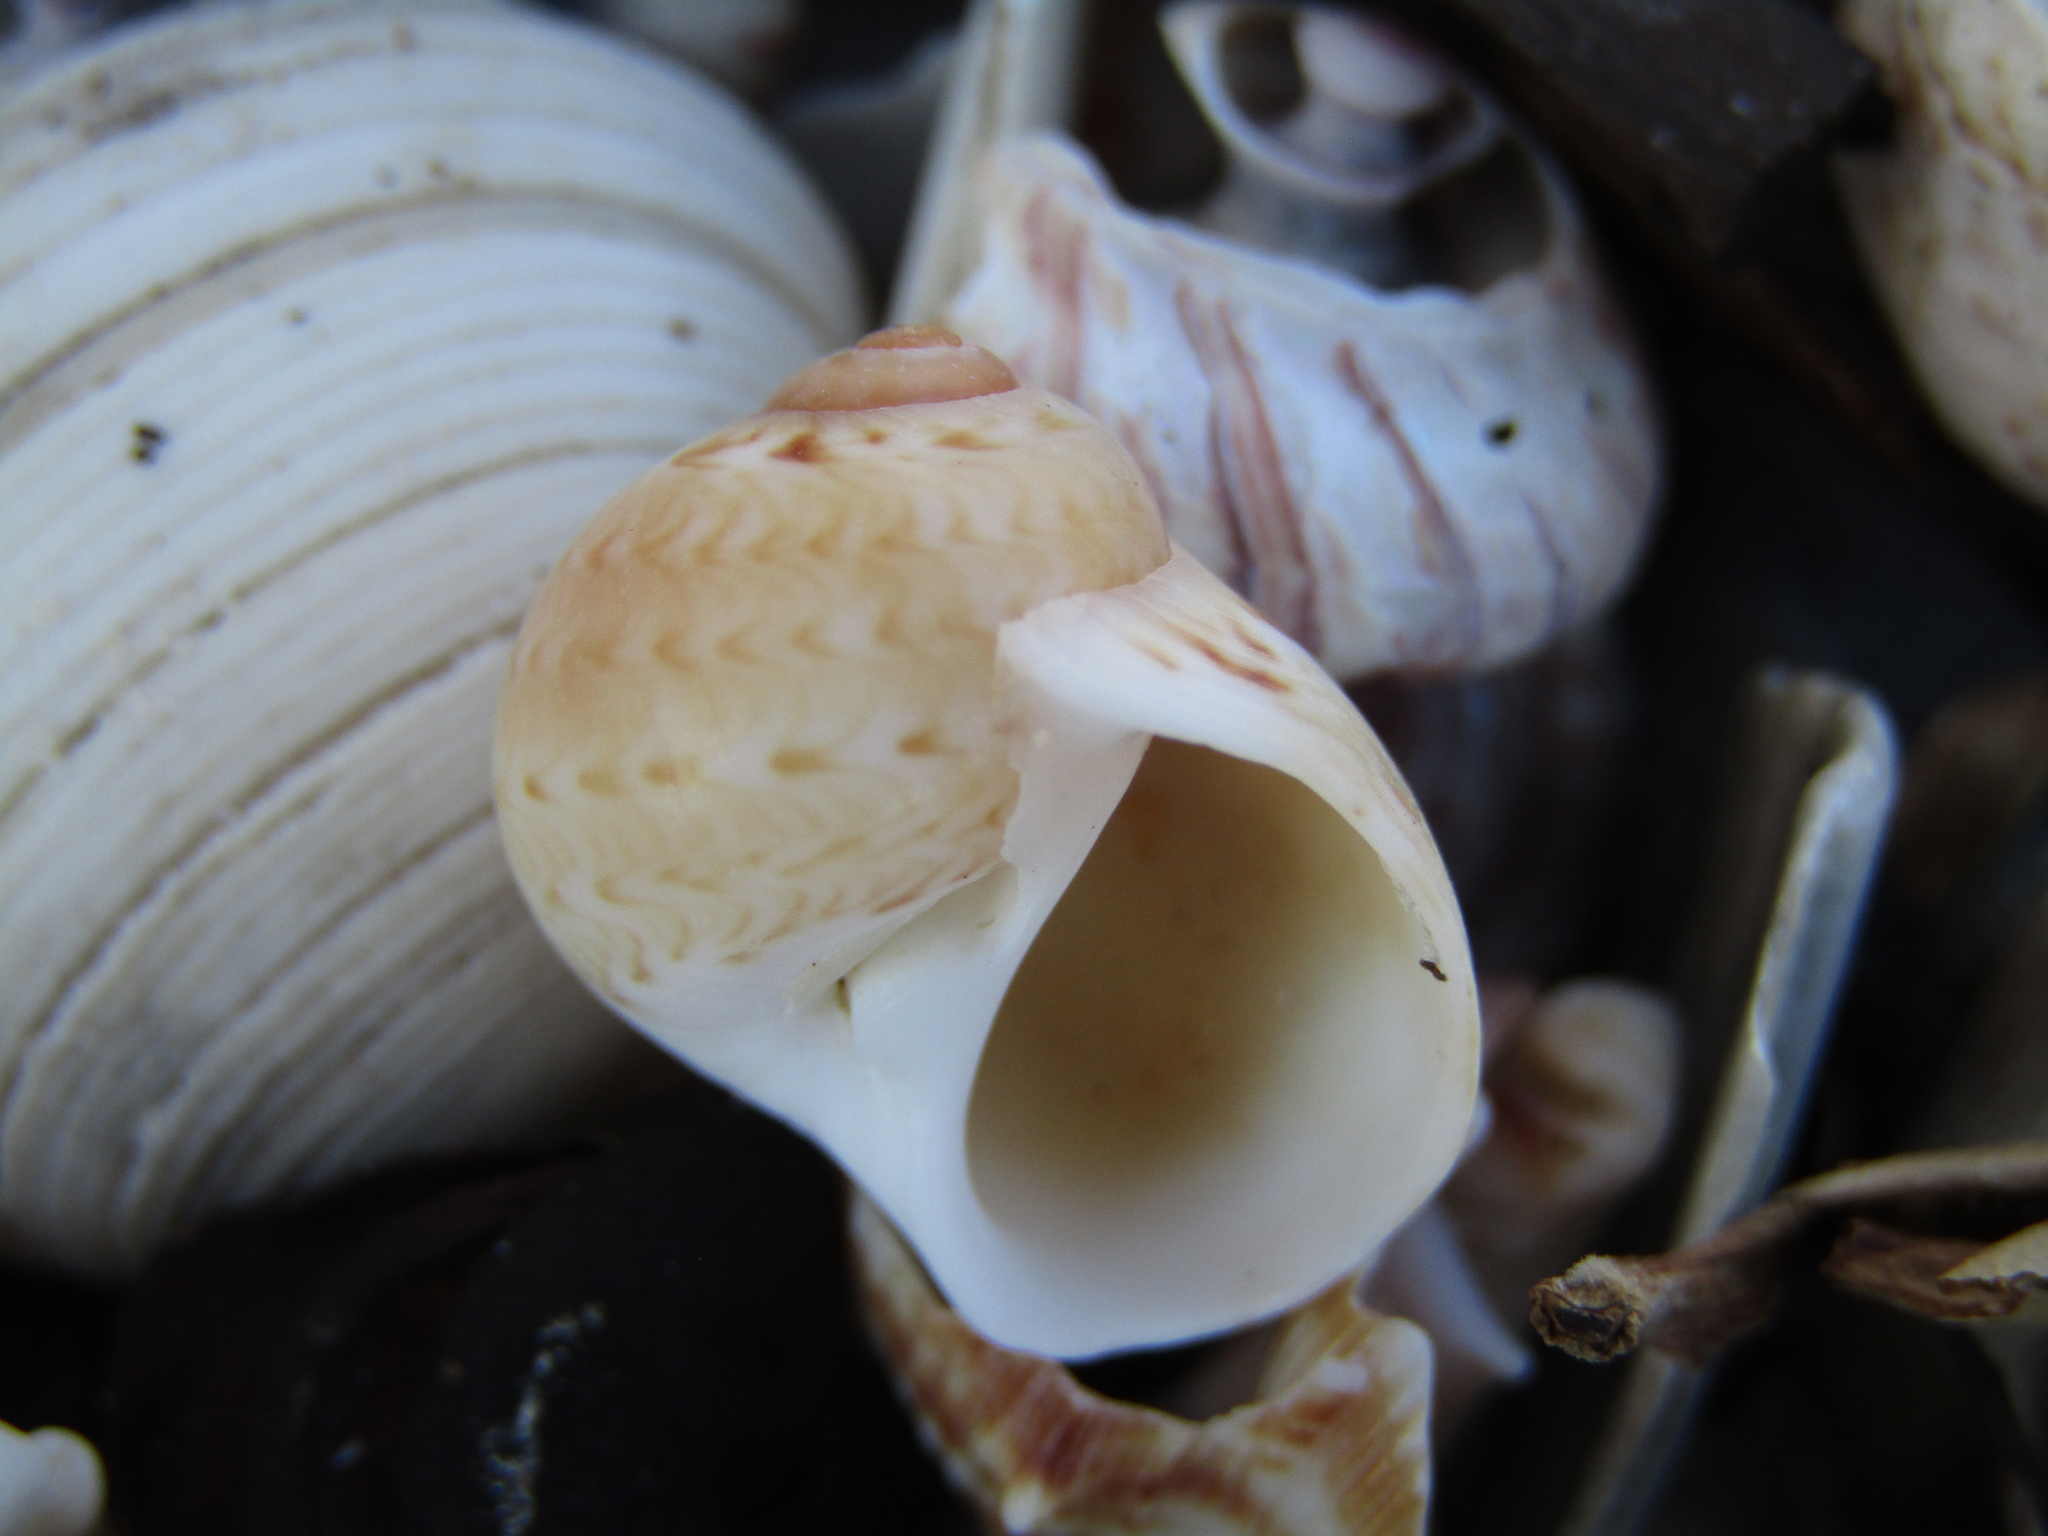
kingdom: Animalia
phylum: Mollusca
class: Gastropoda
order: Littorinimorpha
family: Naticidae
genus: Tanea
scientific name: Tanea zelandica
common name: New zealand moonsnail
